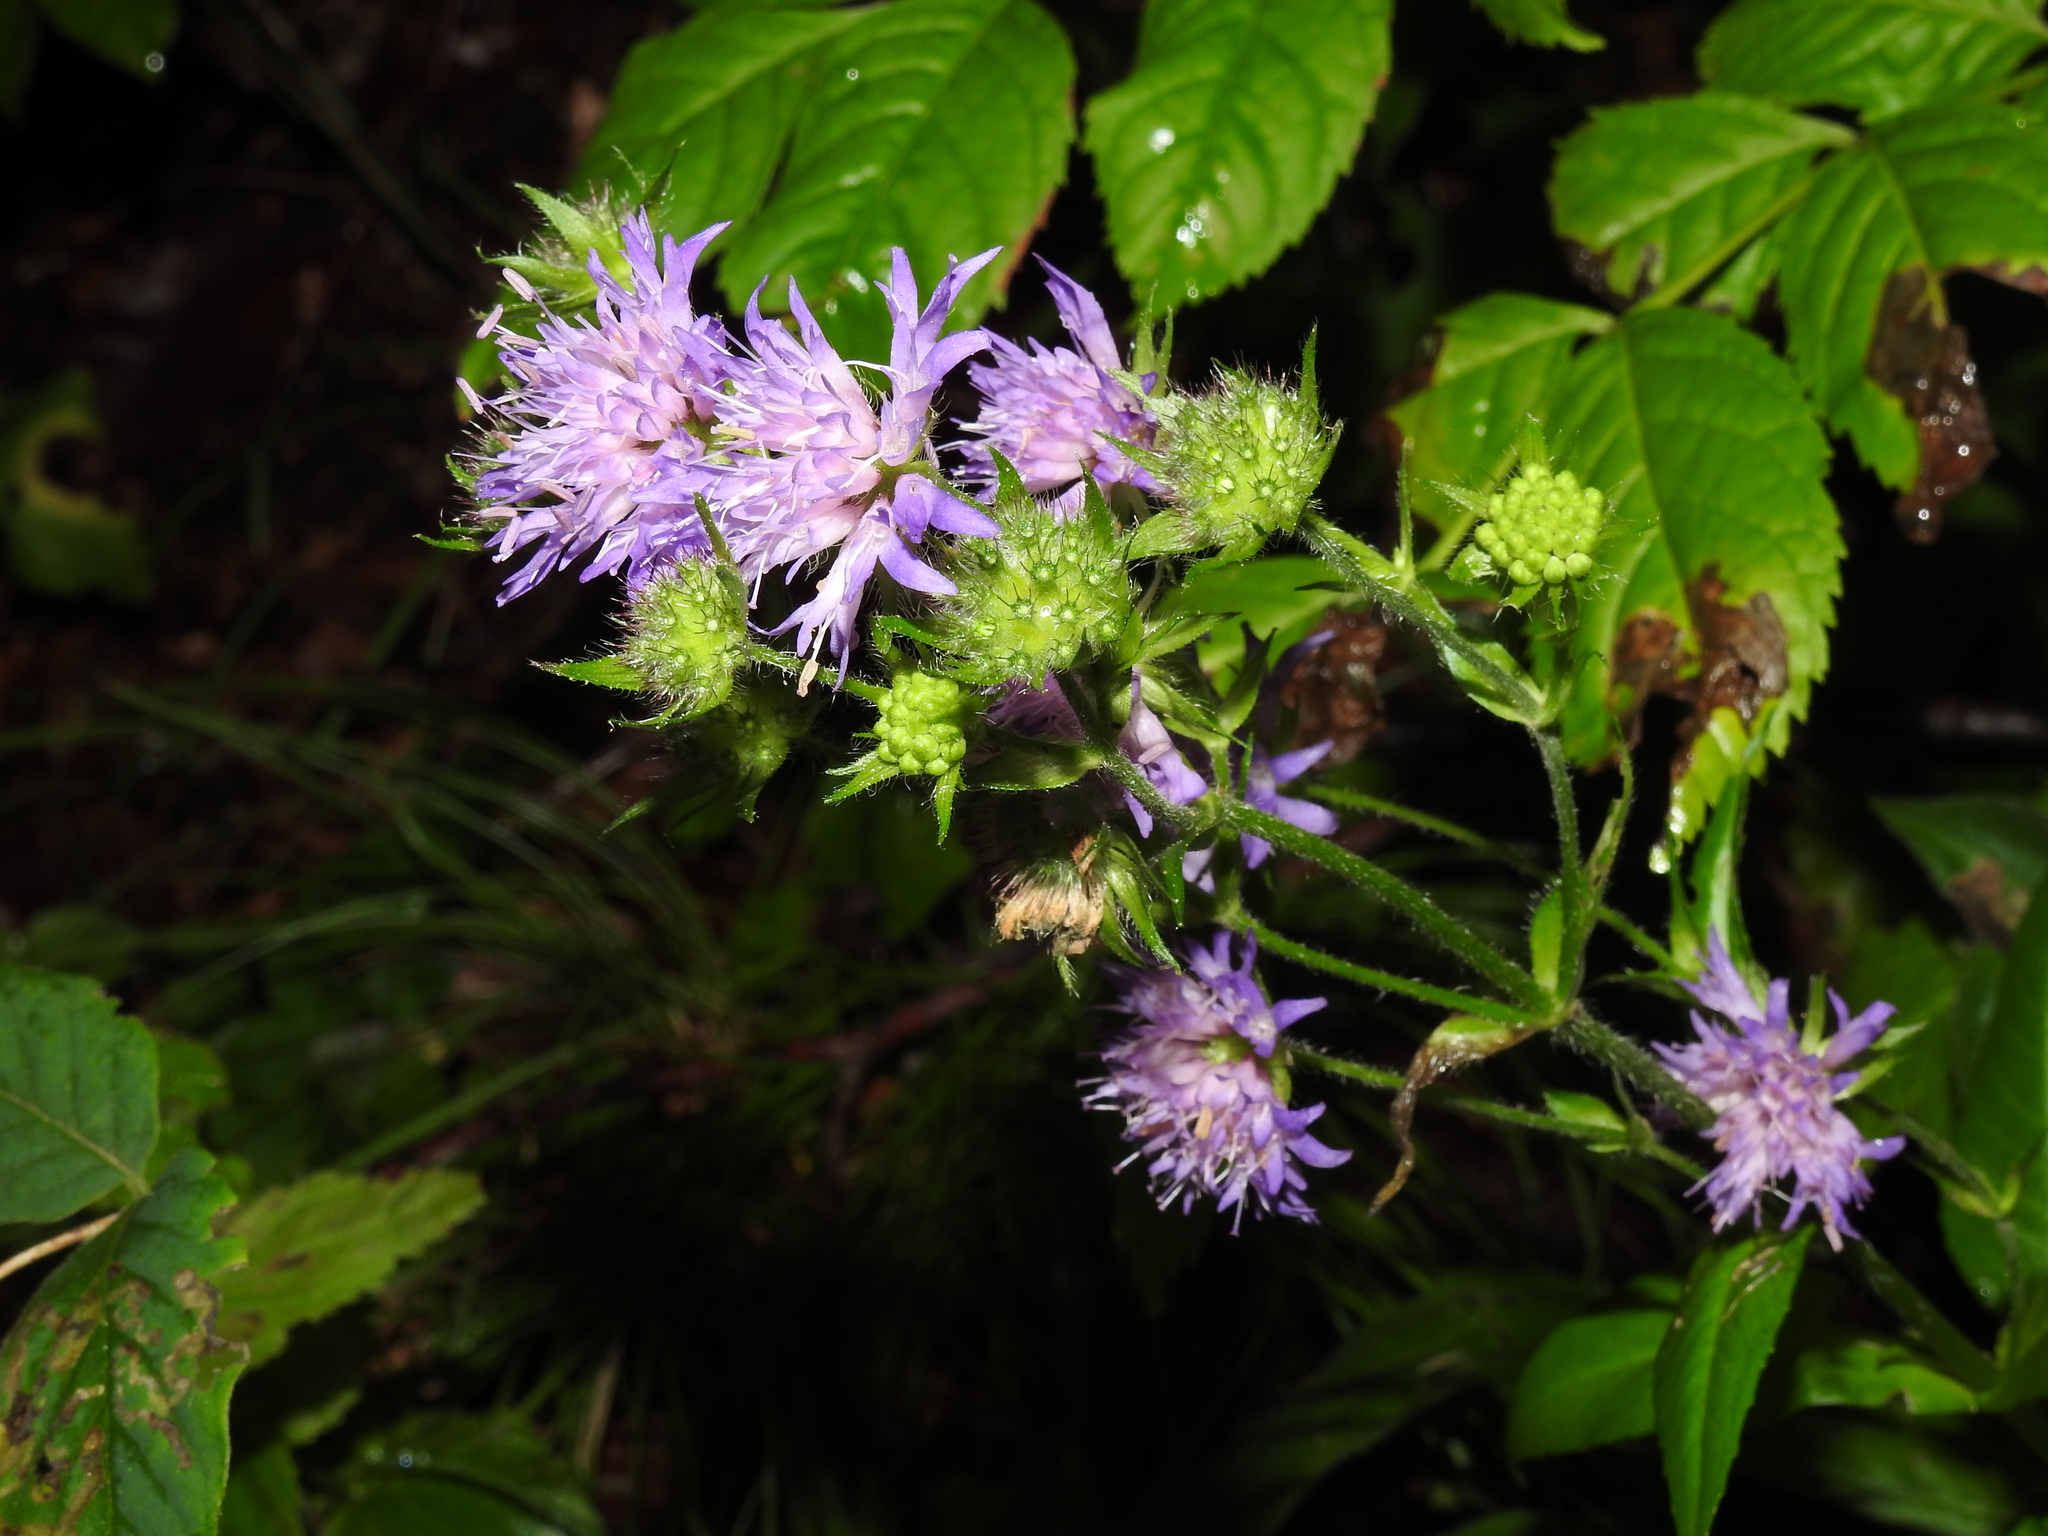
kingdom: Plantae
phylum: Tracheophyta
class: Magnoliopsida
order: Dipsacales
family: Caprifoliaceae
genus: Knautia
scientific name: Knautia dipsacifolia
